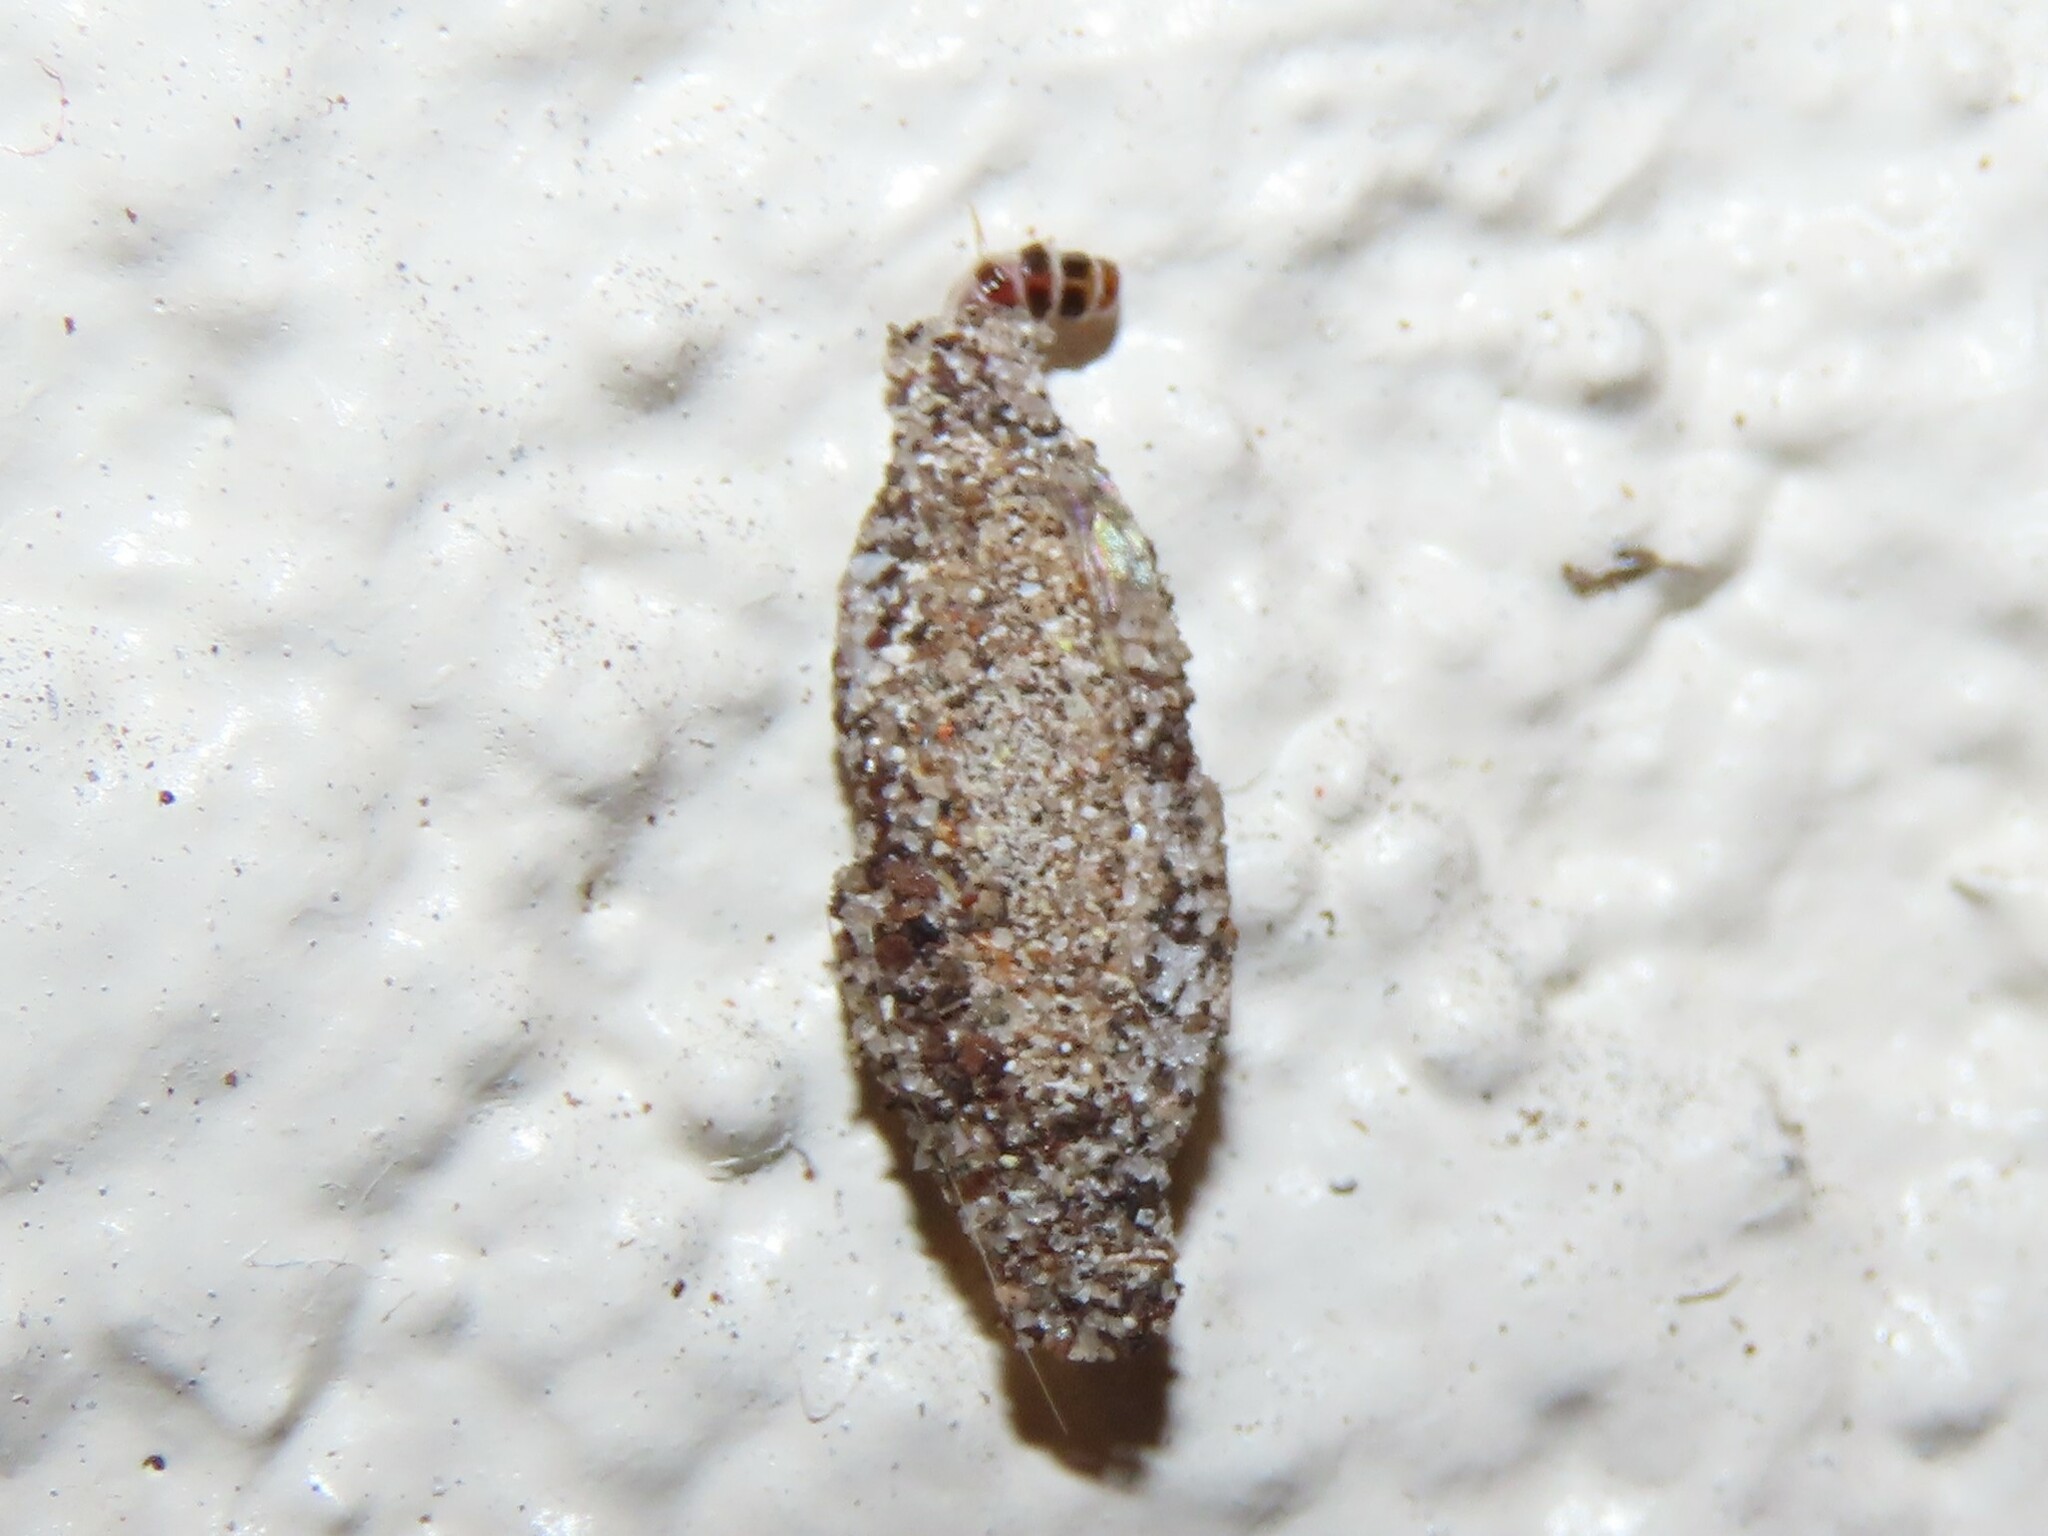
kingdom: Animalia
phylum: Arthropoda
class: Insecta
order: Lepidoptera
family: Tineidae
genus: Phereoeca
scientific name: Phereoeca uterella
